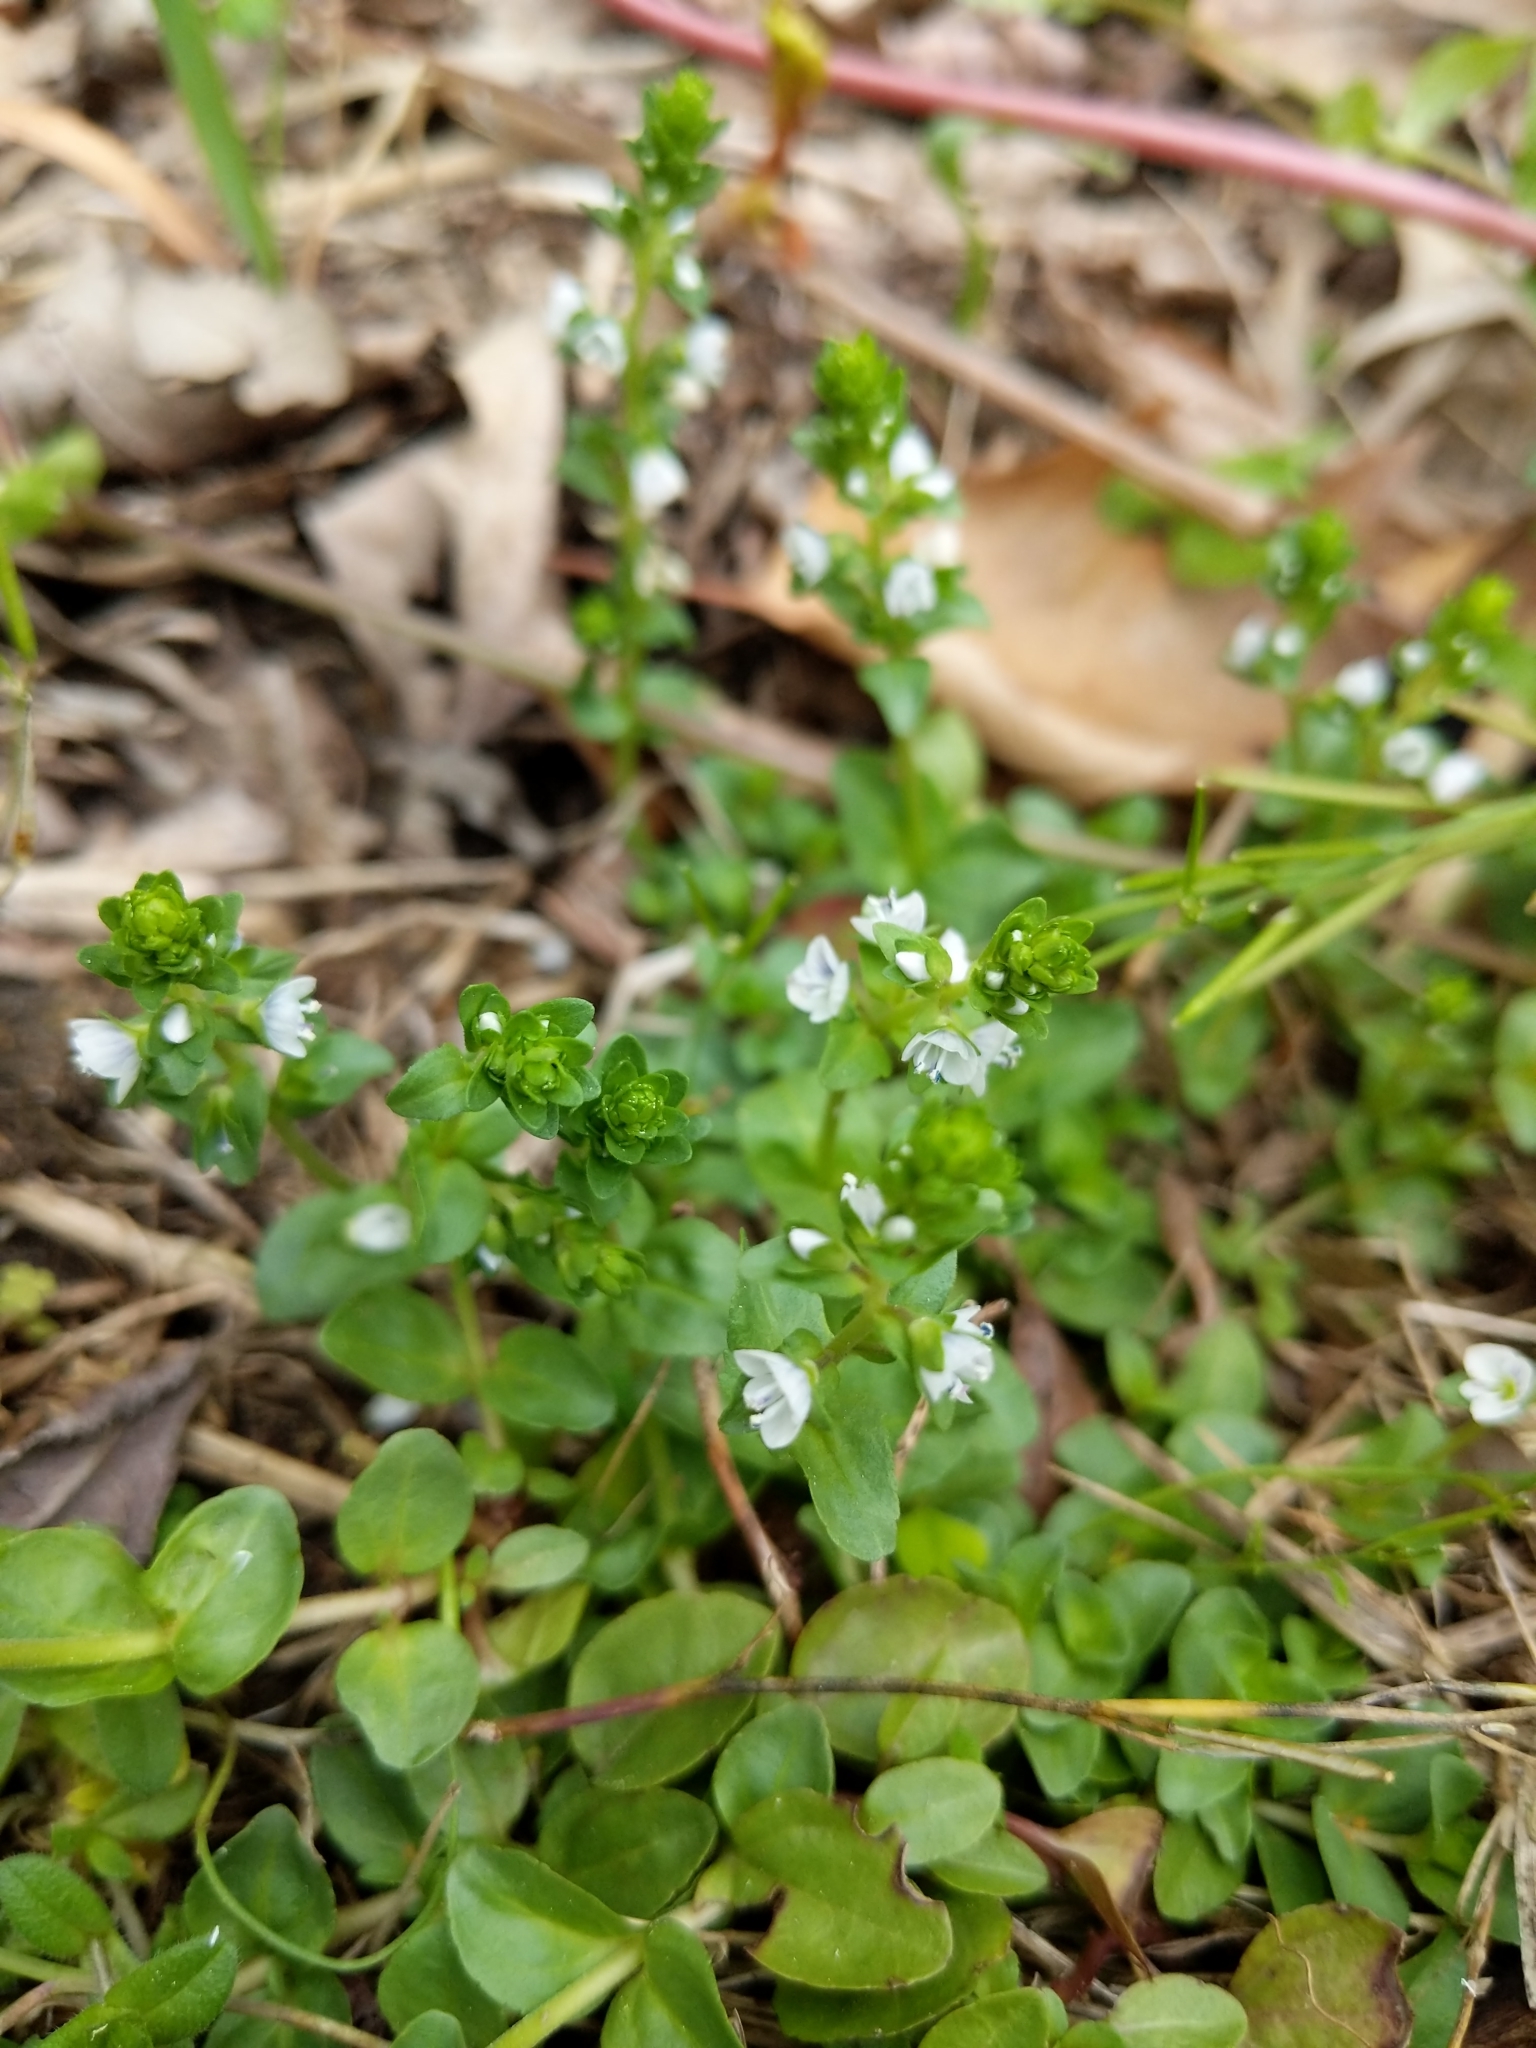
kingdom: Plantae
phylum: Tracheophyta
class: Magnoliopsida
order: Lamiales
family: Plantaginaceae
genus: Veronica
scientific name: Veronica serpyllifolia
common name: Thyme-leaved speedwell
